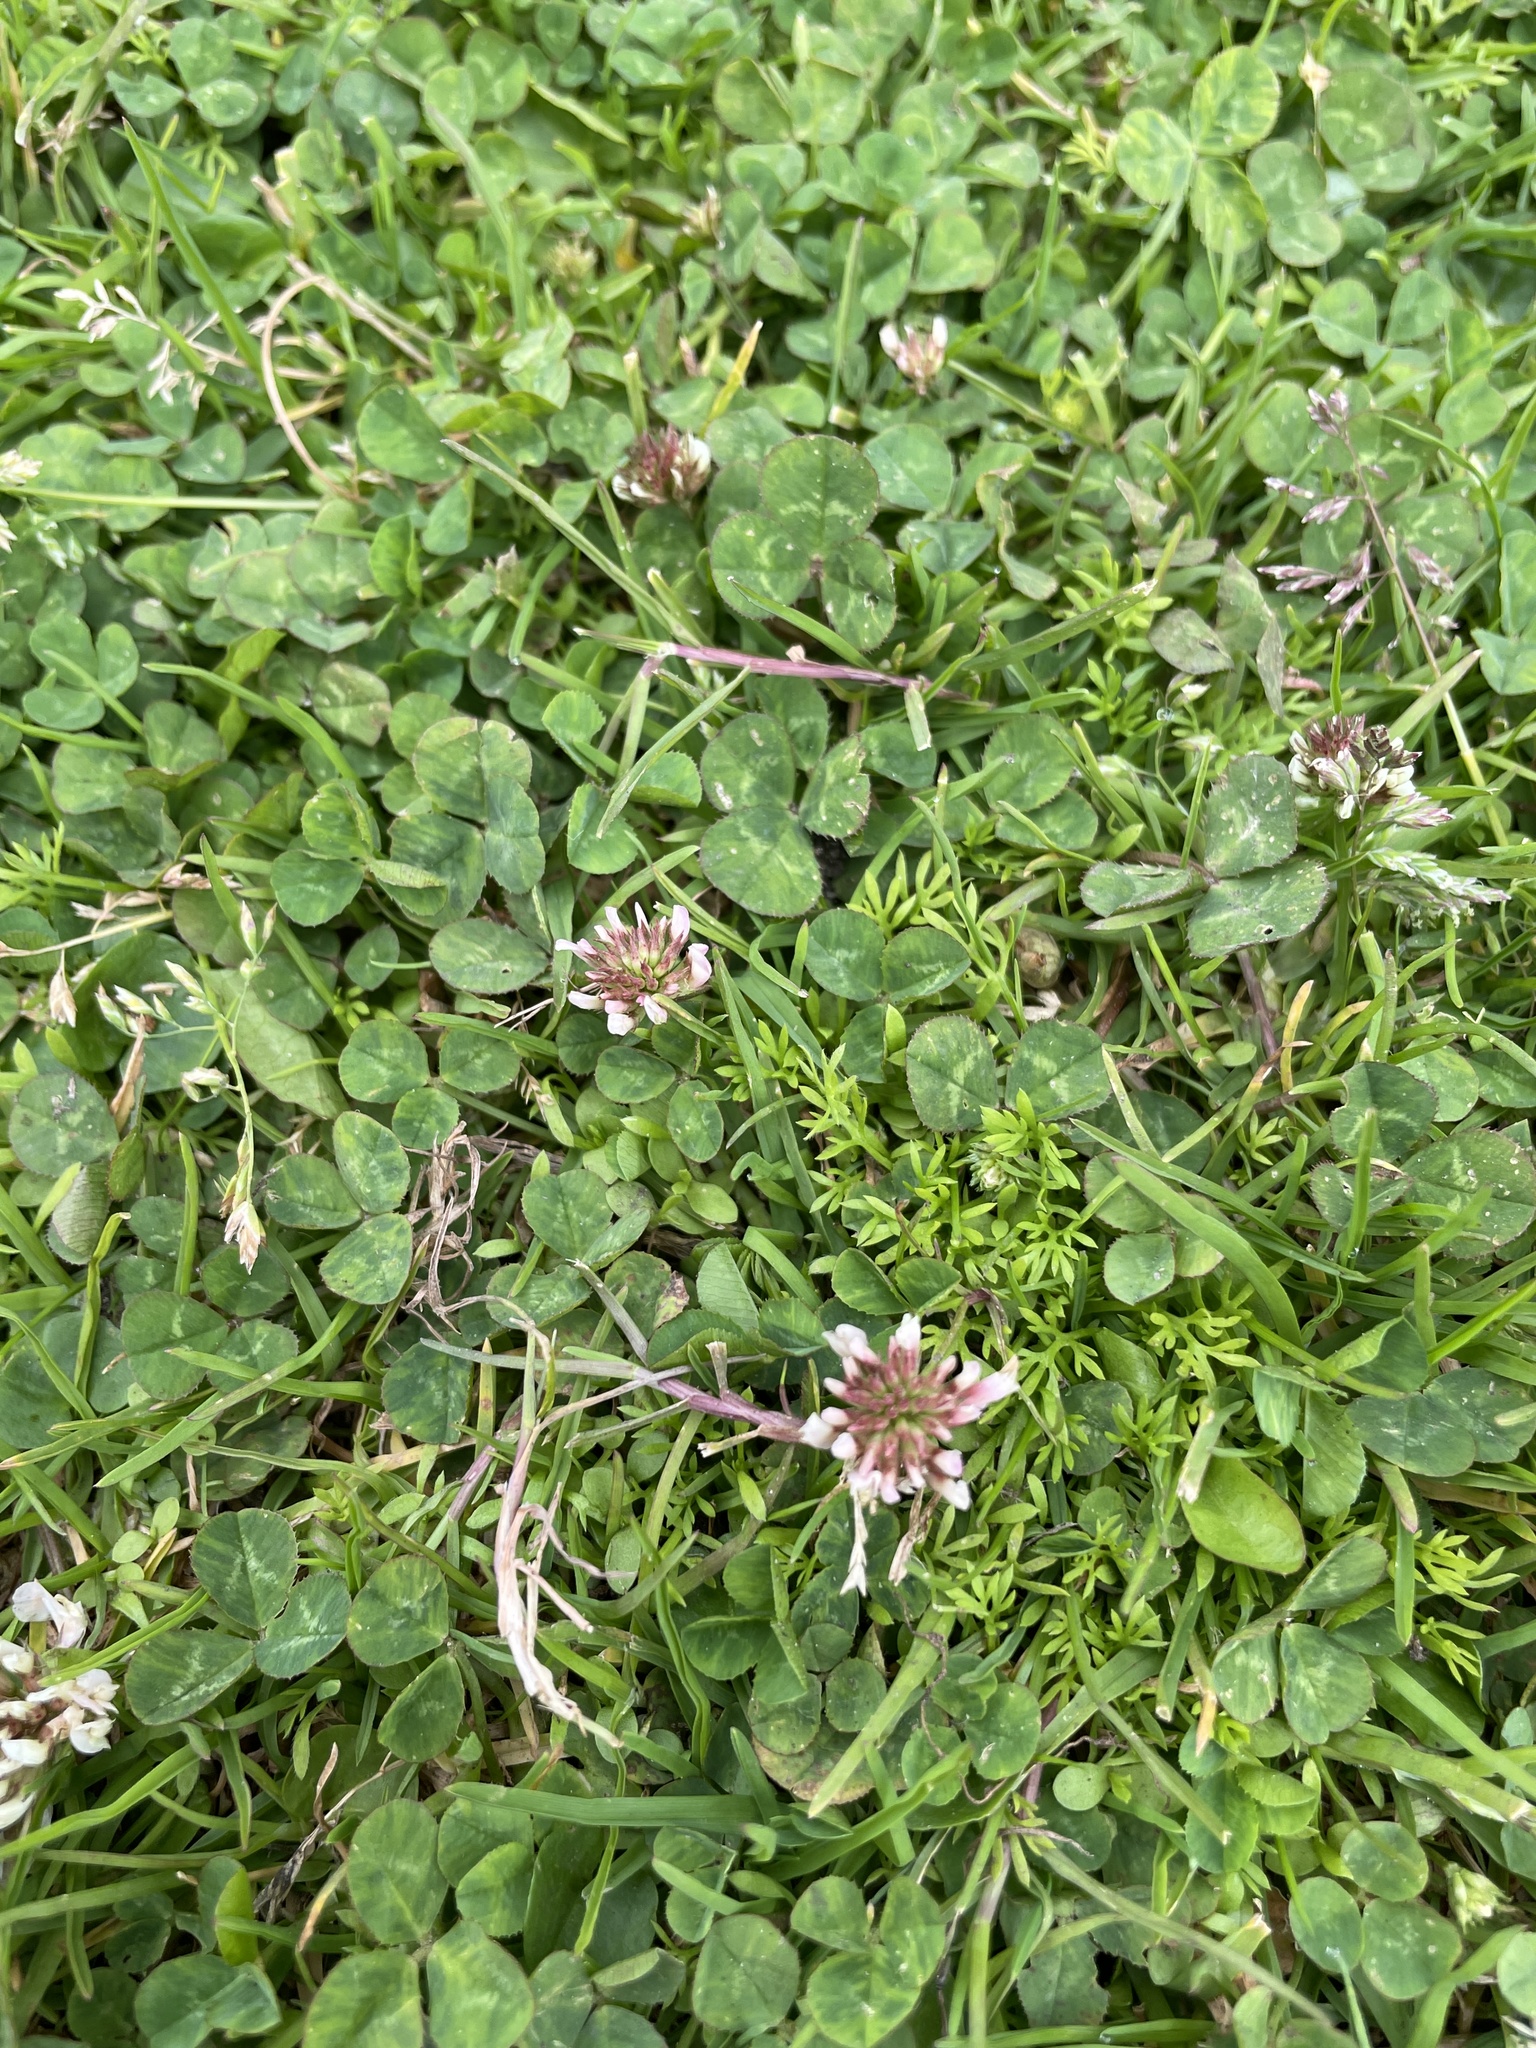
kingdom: Plantae
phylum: Tracheophyta
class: Magnoliopsida
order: Fabales
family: Fabaceae
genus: Trifolium
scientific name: Trifolium repens
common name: White clover
